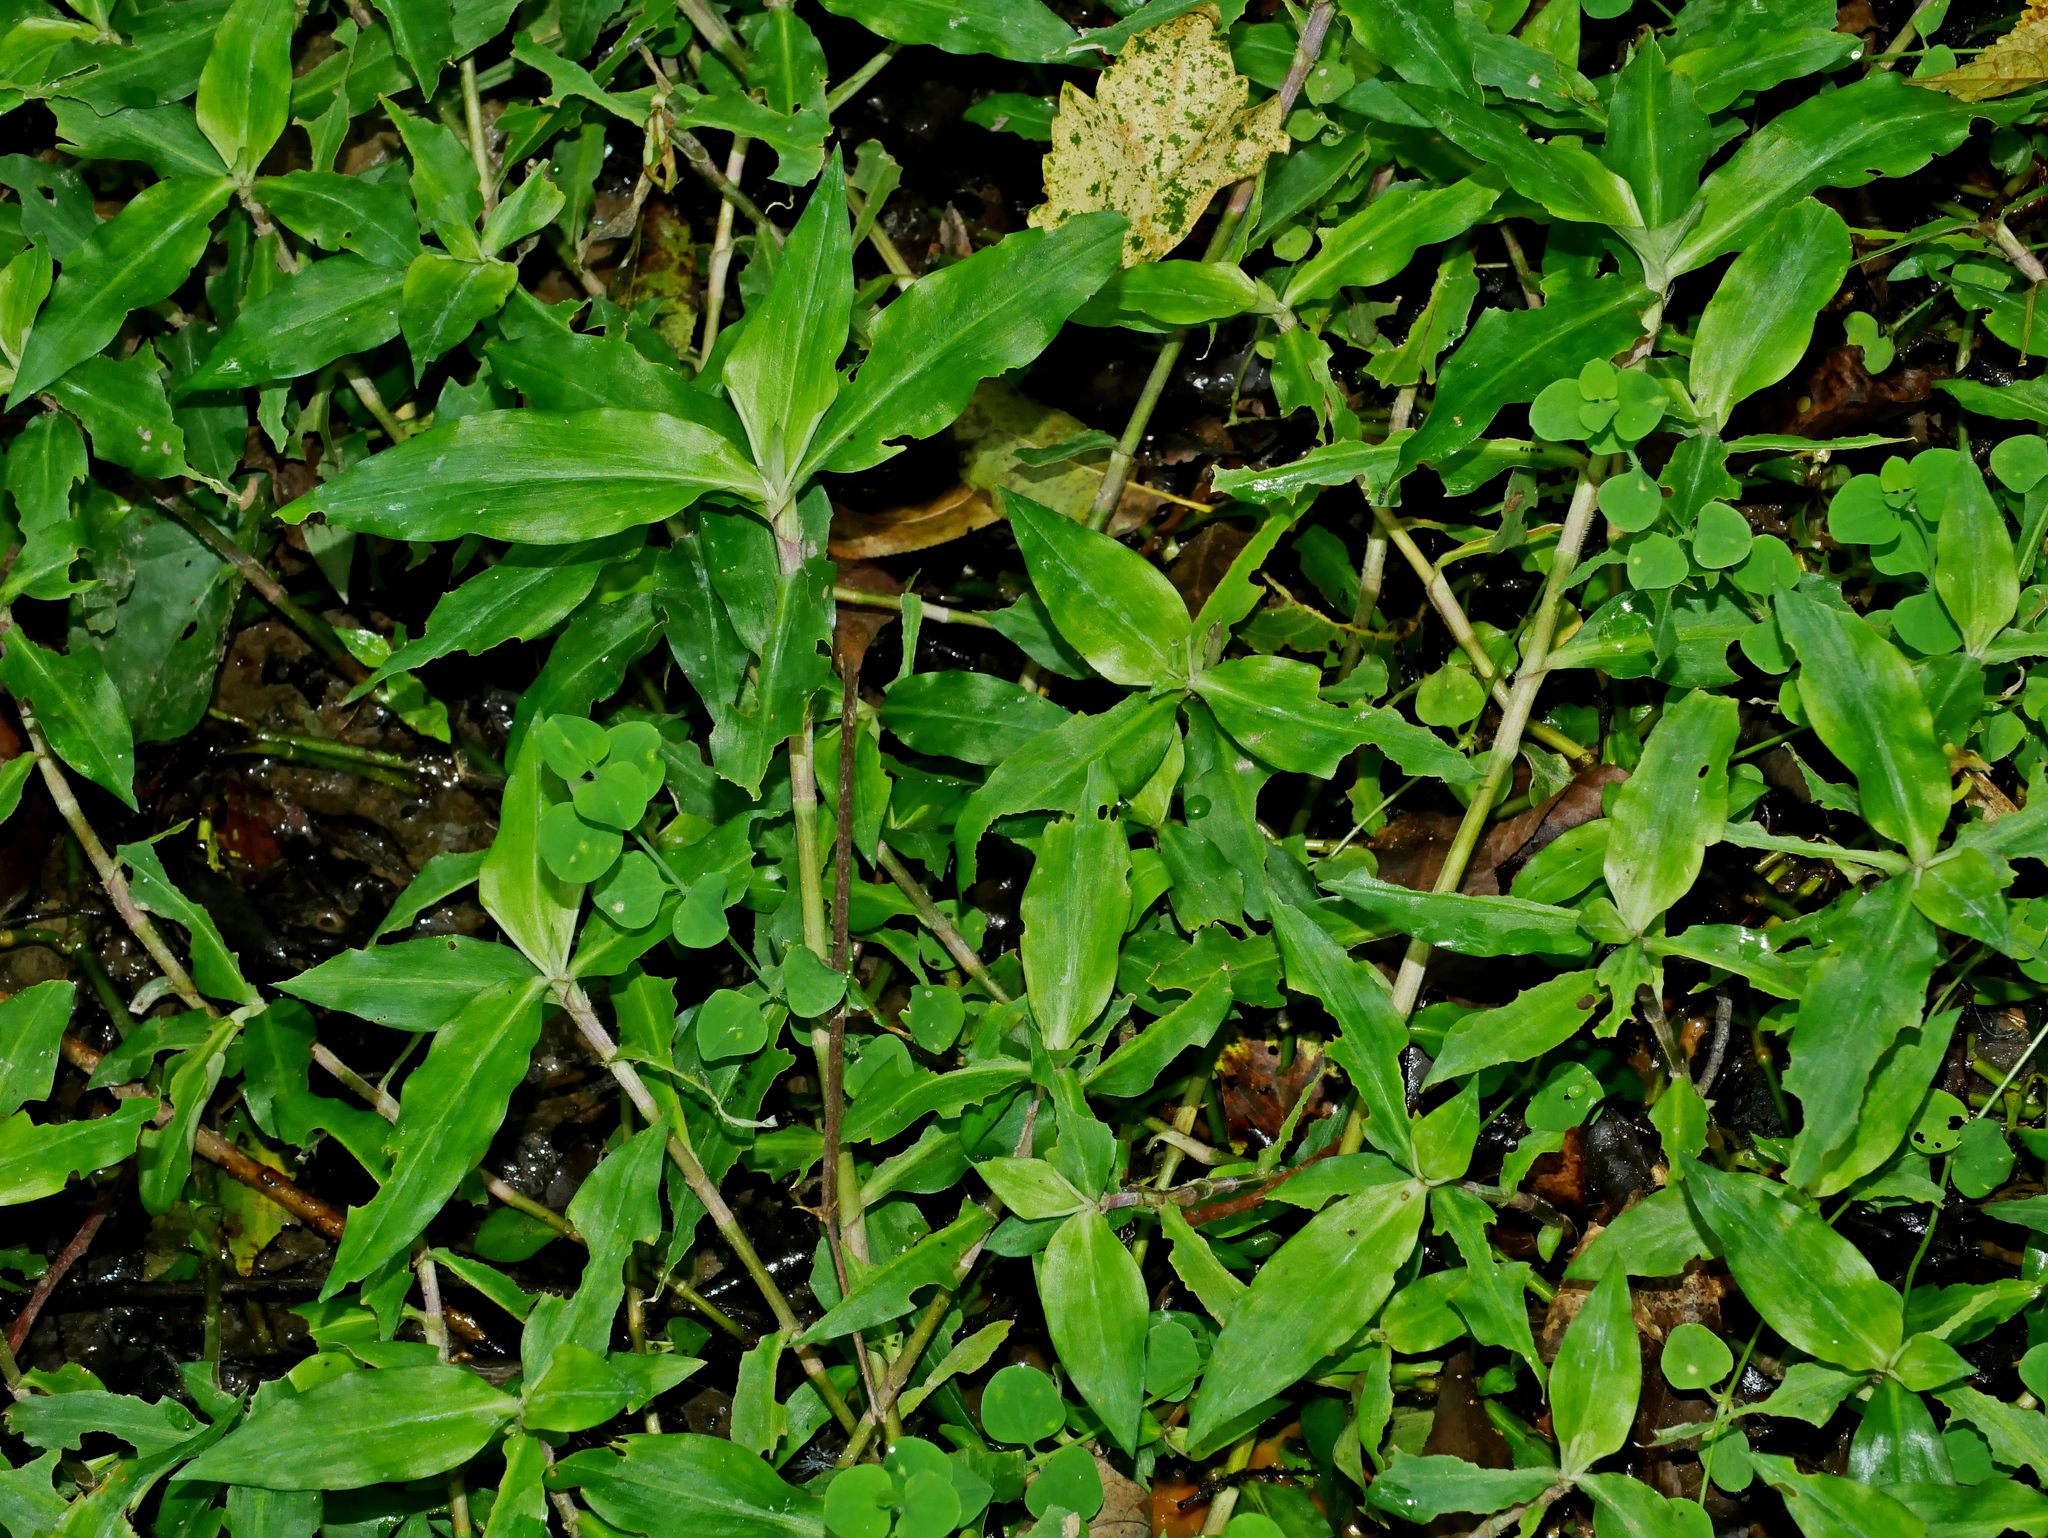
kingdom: Plantae
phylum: Tracheophyta
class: Liliopsida
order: Commelinales
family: Commelinaceae
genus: Floscopa
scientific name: Floscopa scandens
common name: Climbing flower cup
